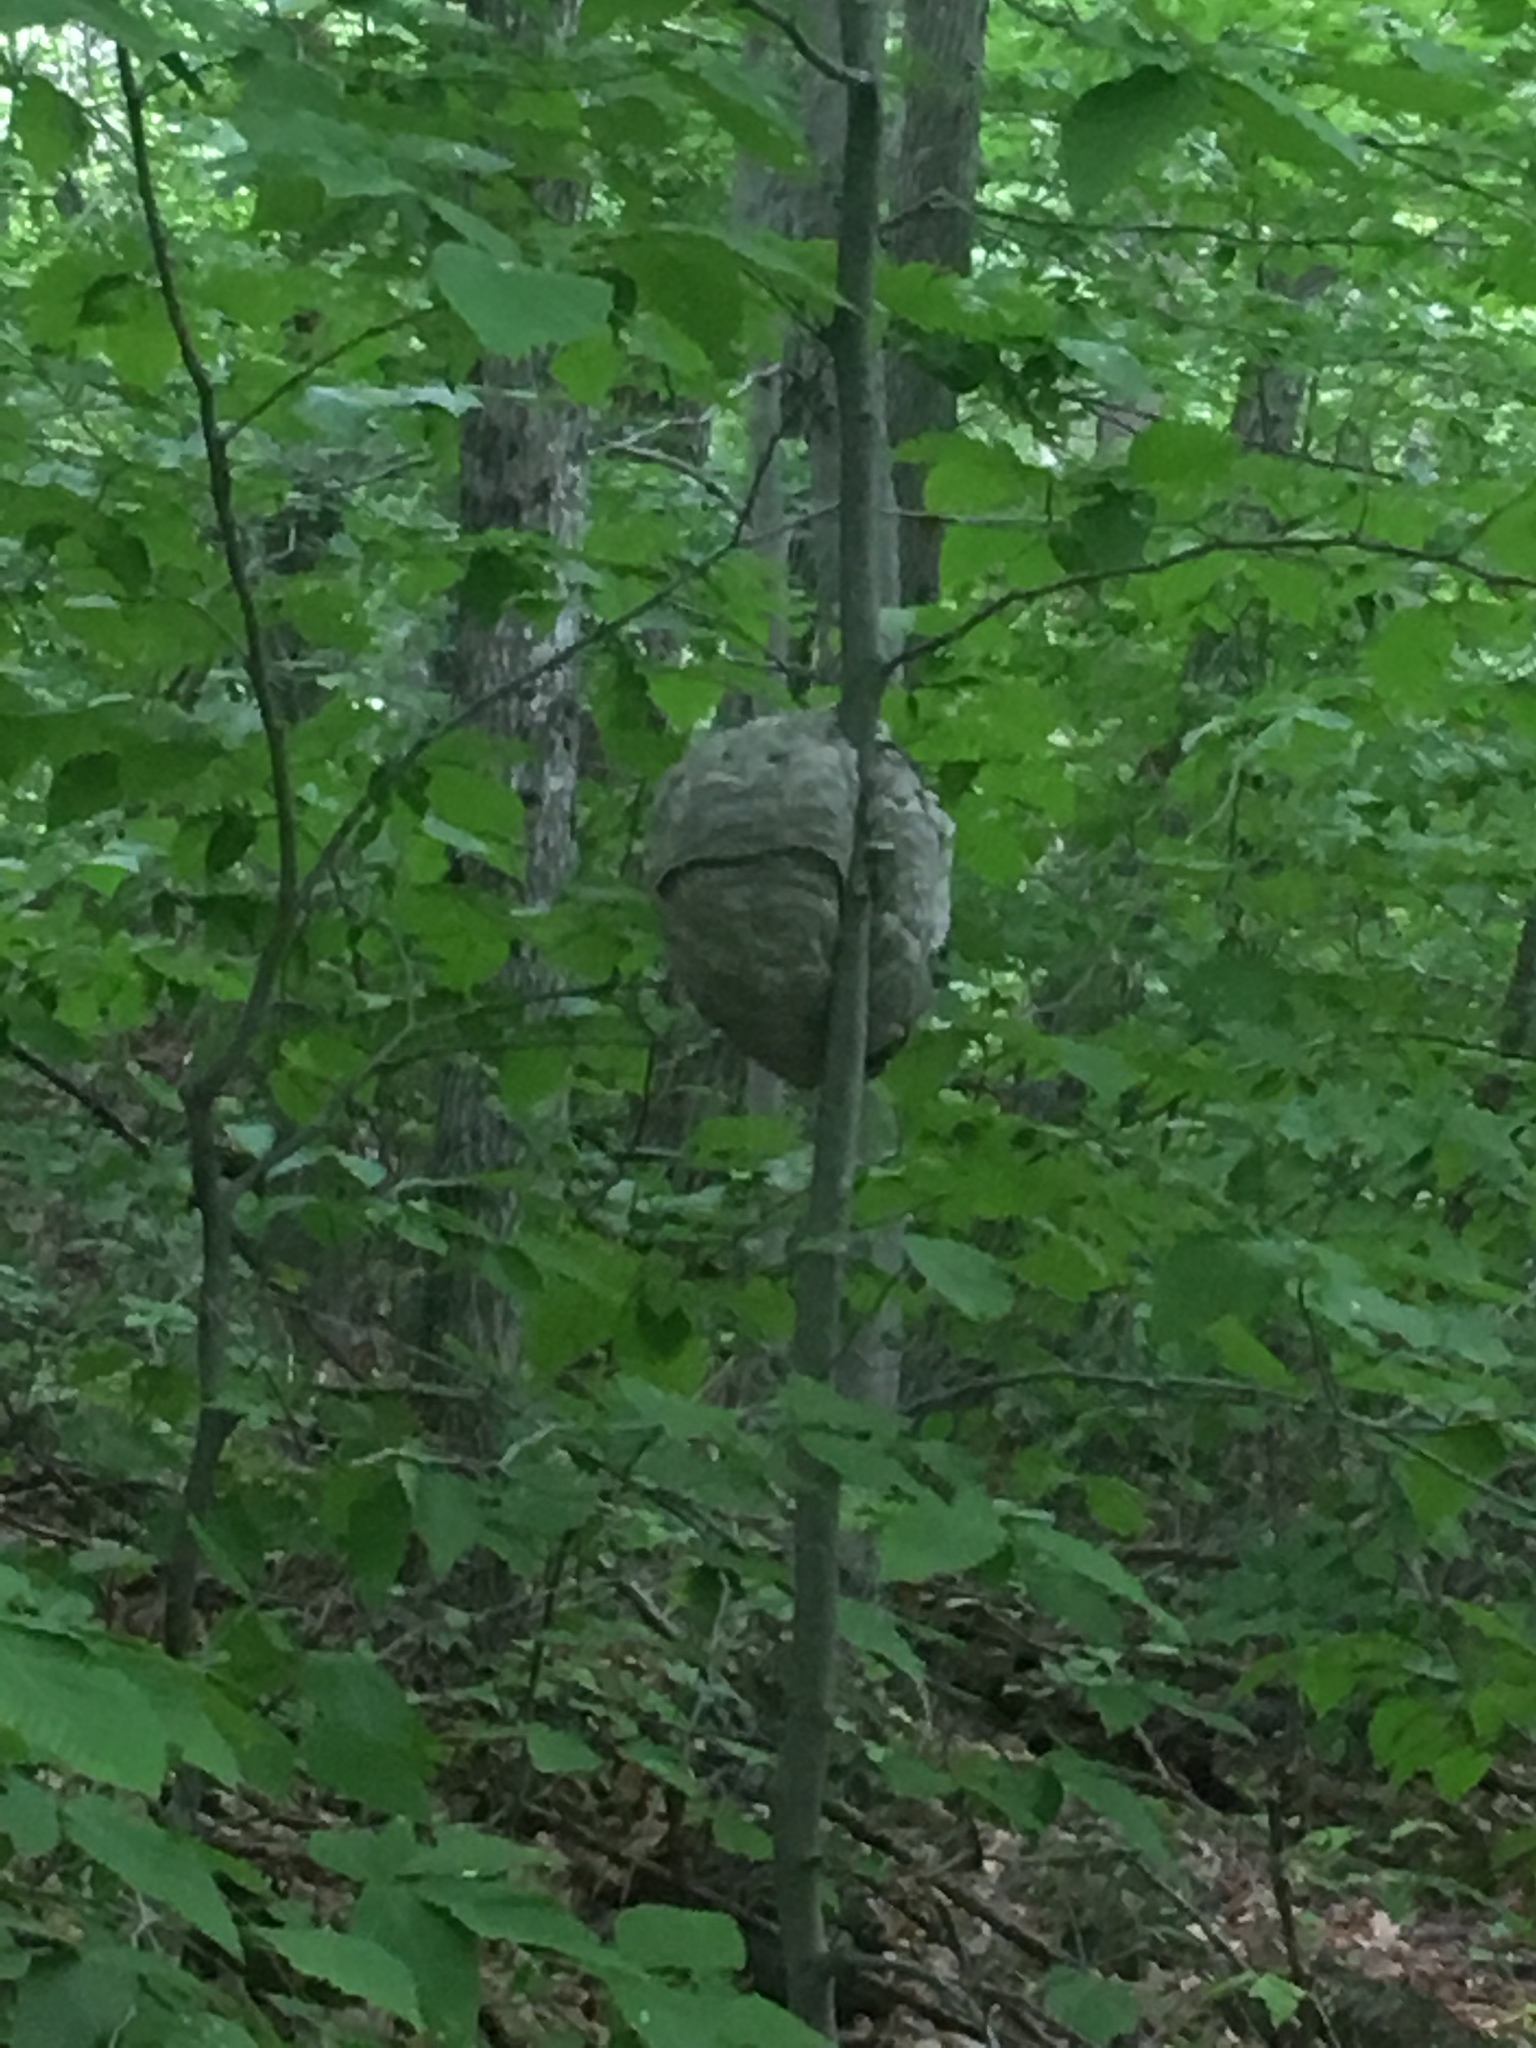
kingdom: Animalia
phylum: Arthropoda
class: Insecta
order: Hymenoptera
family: Vespidae
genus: Dolichovespula
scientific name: Dolichovespula maculata
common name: Bald-faced hornet
